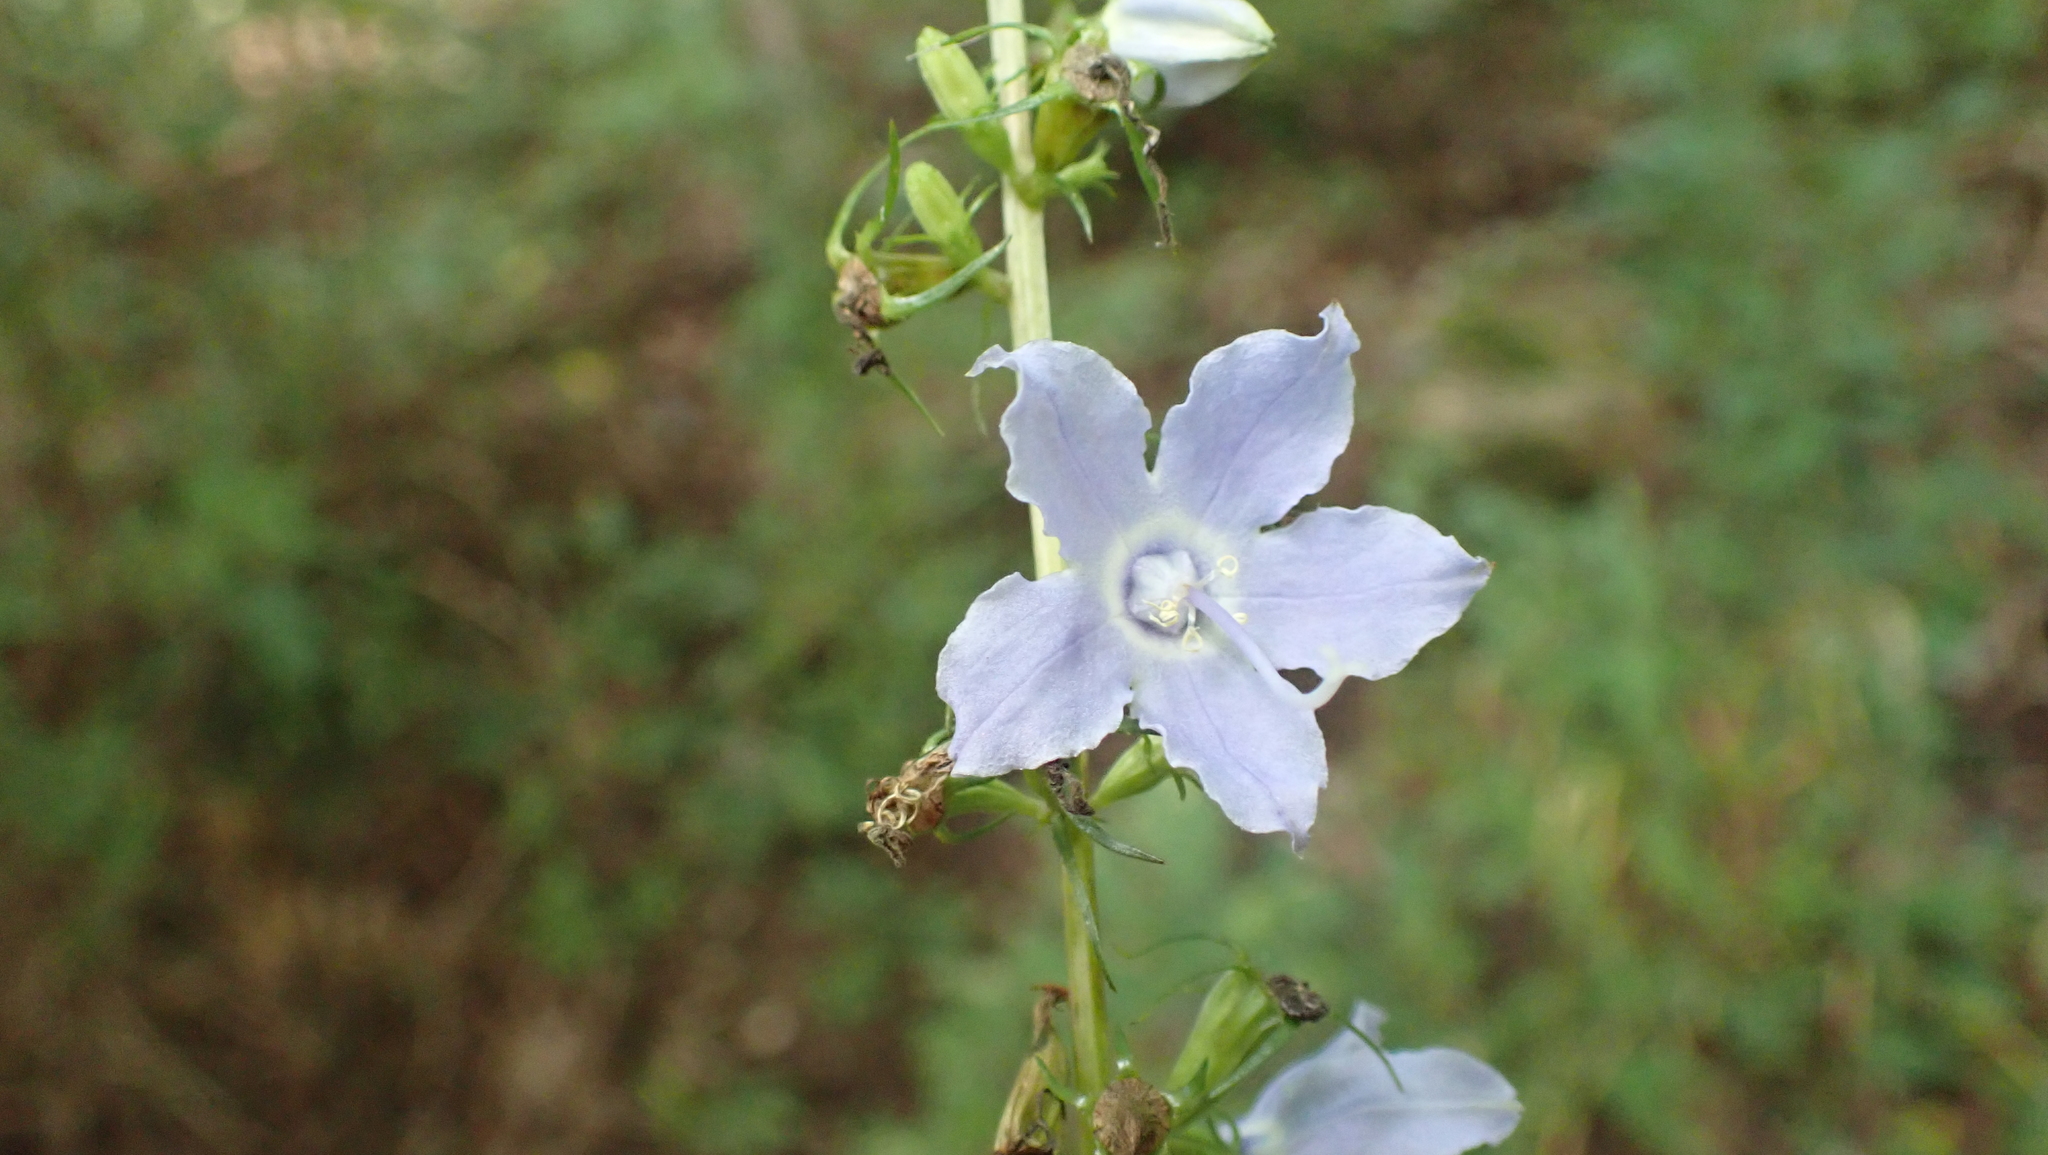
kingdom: Plantae
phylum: Tracheophyta
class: Magnoliopsida
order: Asterales
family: Campanulaceae
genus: Campanulastrum
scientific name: Campanulastrum americanum
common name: American bellflower
